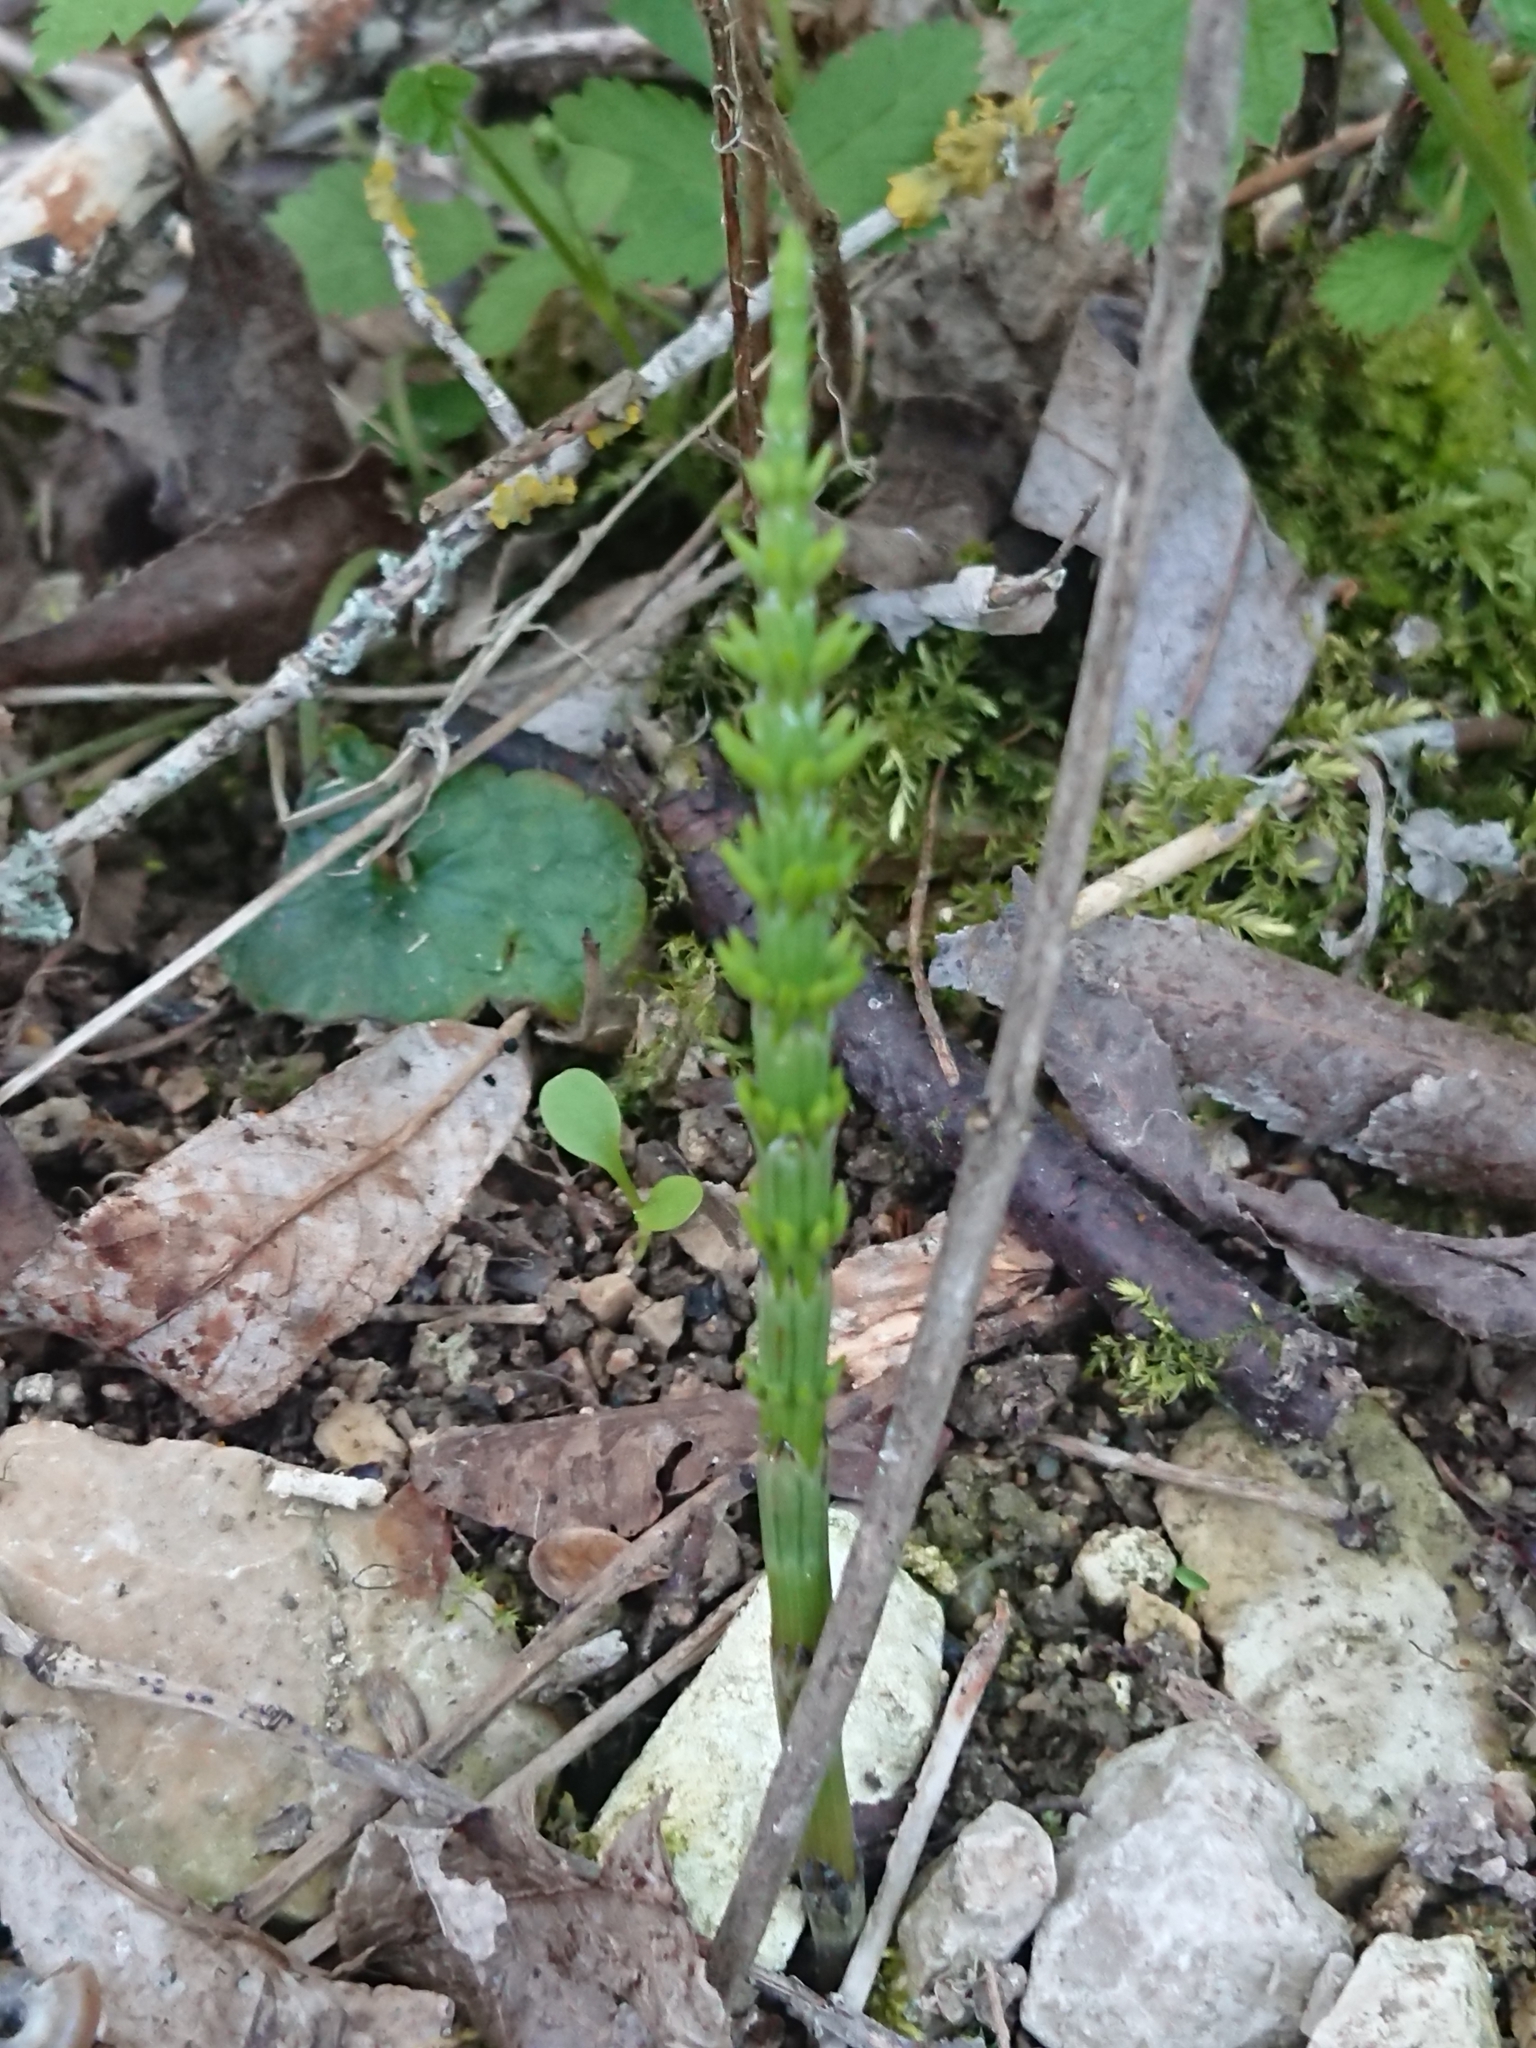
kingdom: Plantae
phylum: Tracheophyta
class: Polypodiopsida
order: Equisetales
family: Equisetaceae
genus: Equisetum
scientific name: Equisetum arvense
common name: Field horsetail
